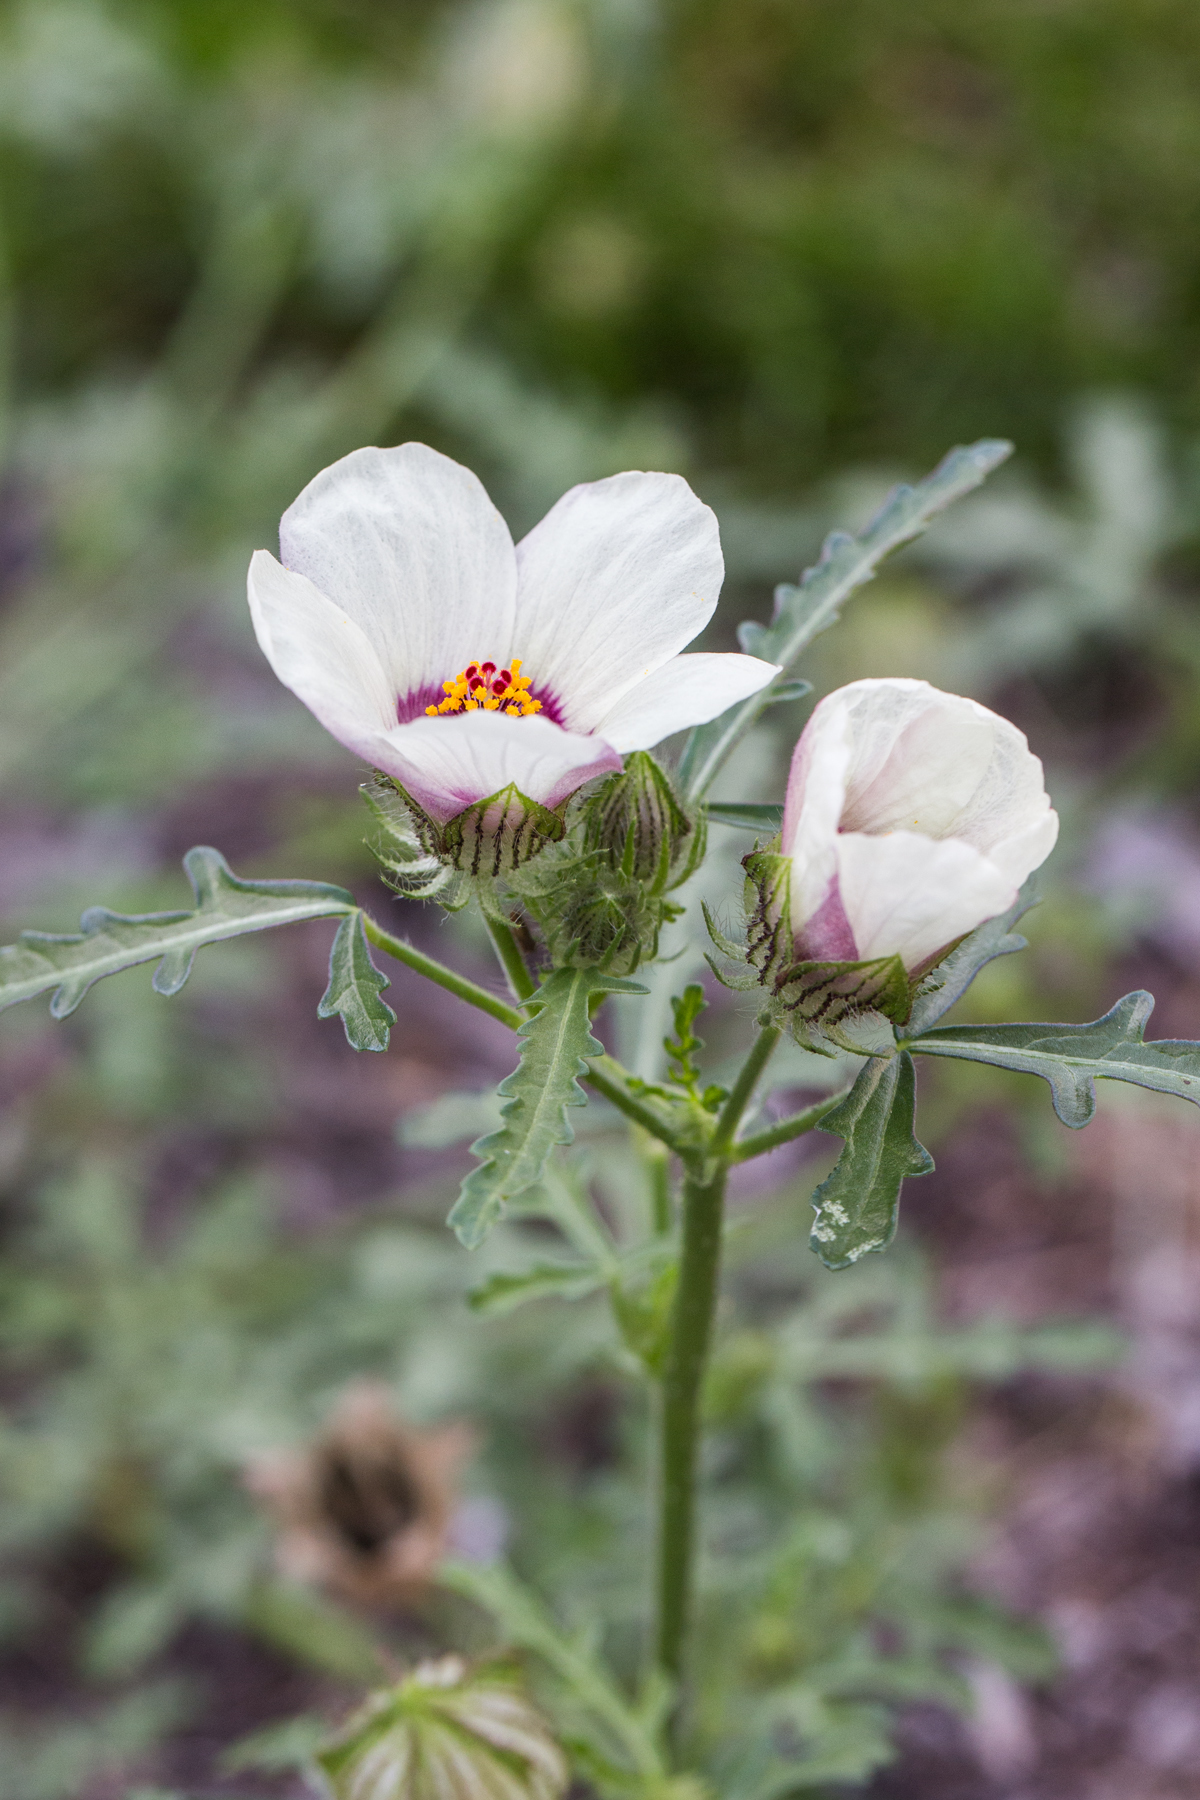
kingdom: Plantae
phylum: Tracheophyta
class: Magnoliopsida
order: Malvales
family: Malvaceae
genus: Hibiscus
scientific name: Hibiscus trionum
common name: Bladder ketmia
